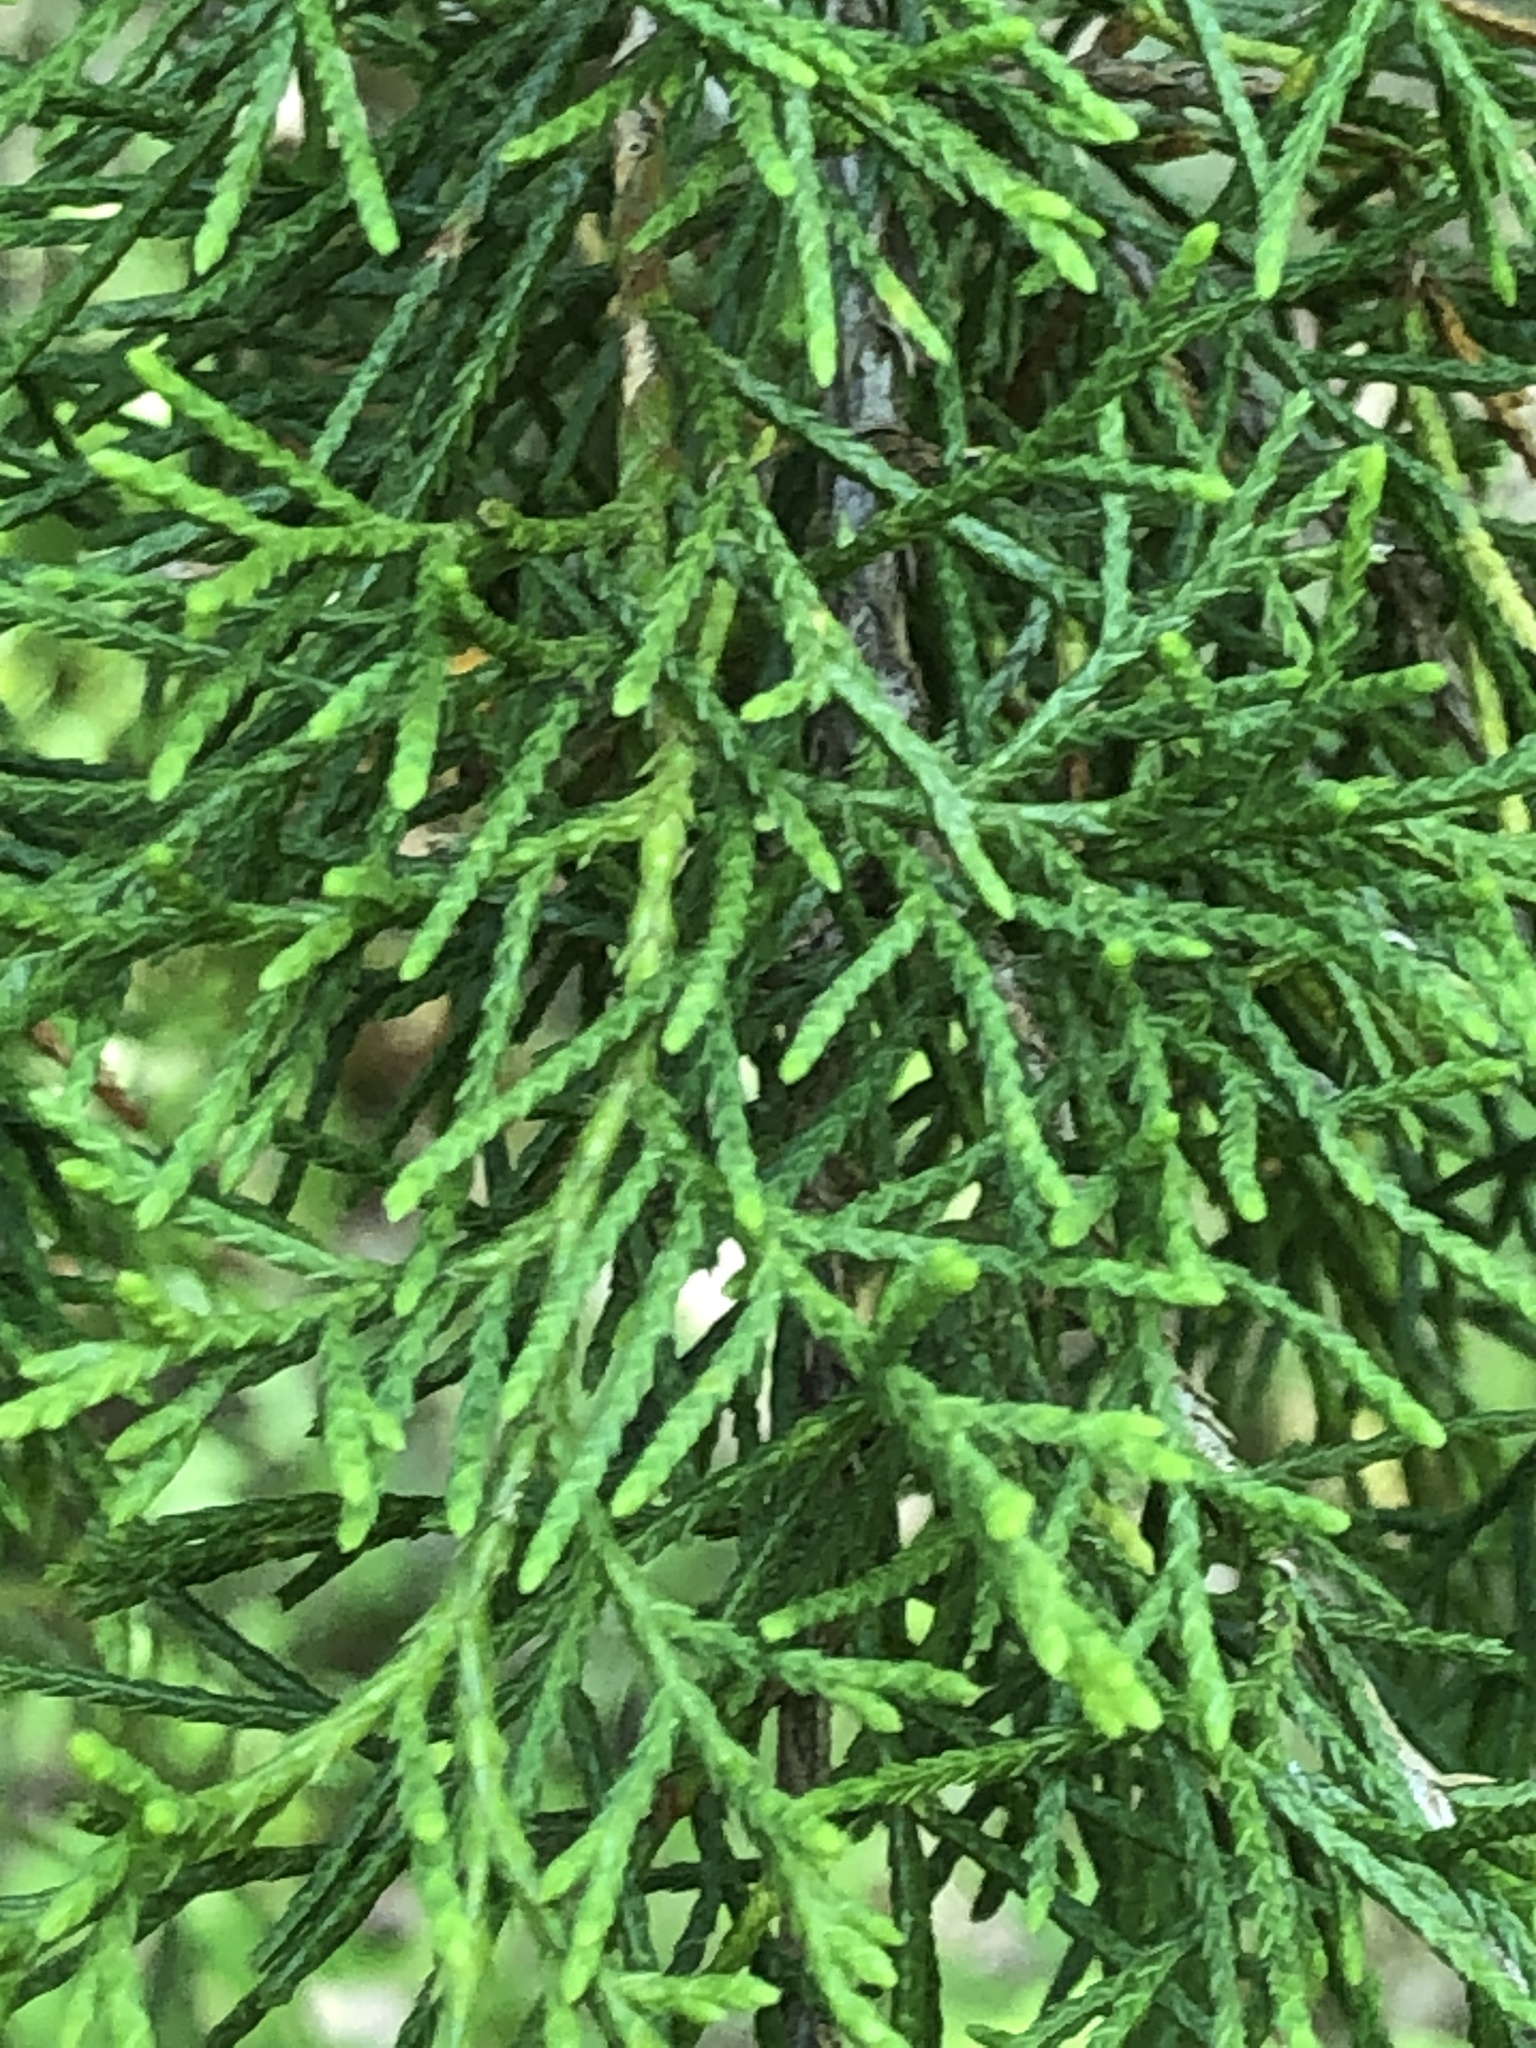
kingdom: Plantae
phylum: Tracheophyta
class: Pinopsida
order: Pinales
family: Cupressaceae
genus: Juniperus
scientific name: Juniperus virginiana
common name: Red juniper
